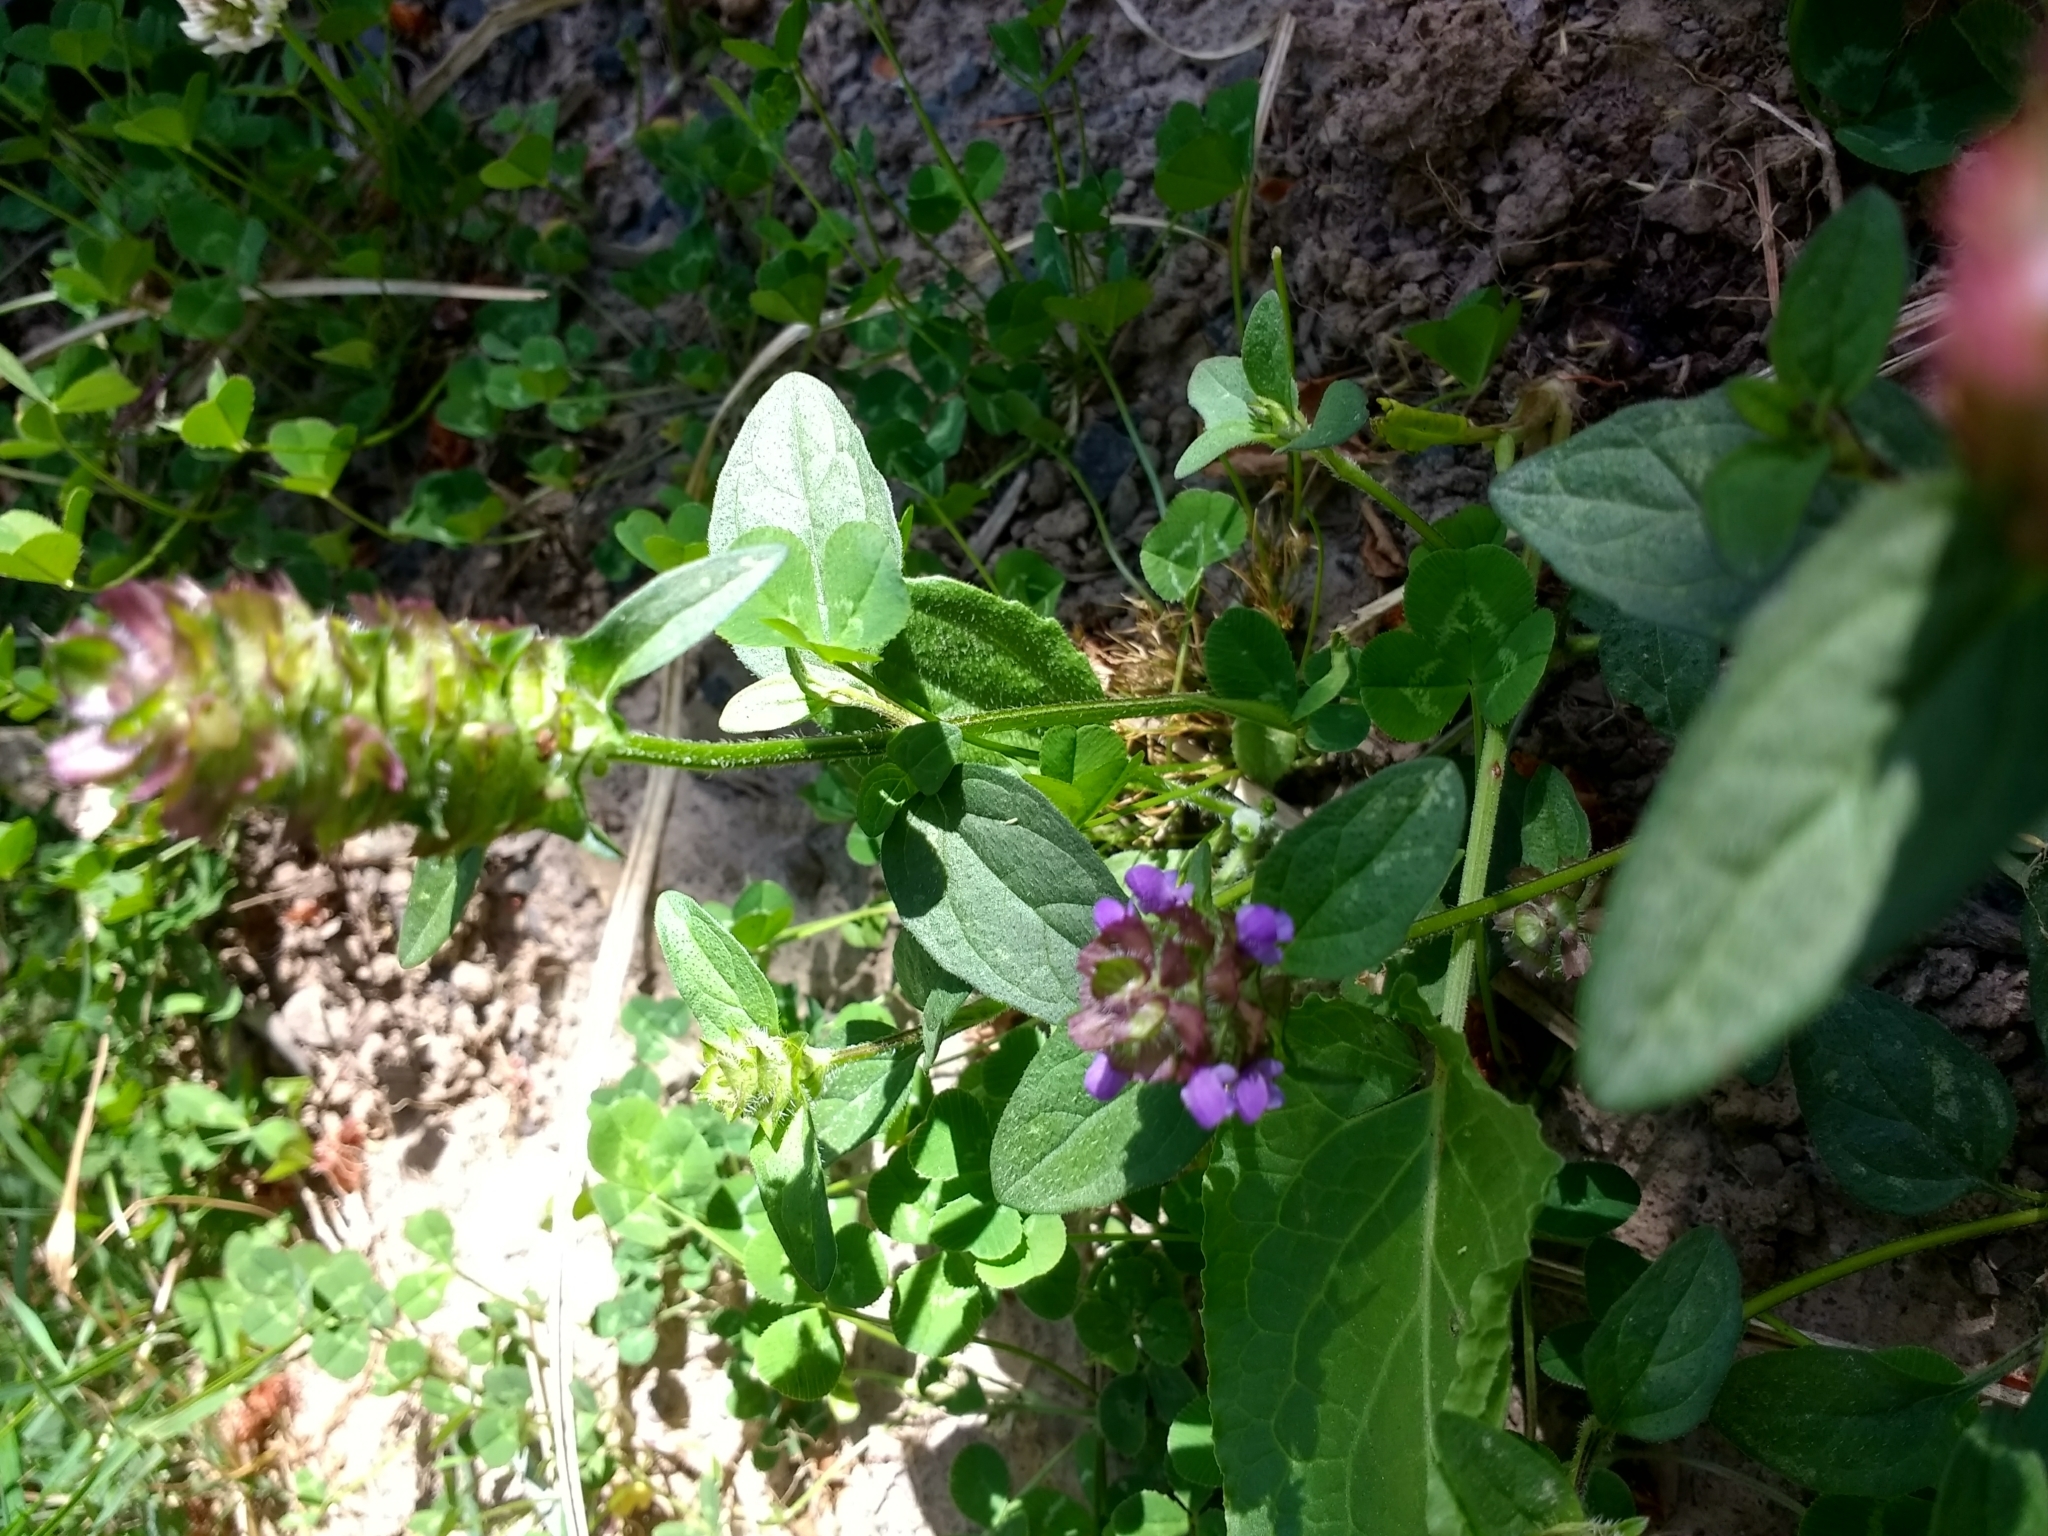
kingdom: Plantae
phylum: Tracheophyta
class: Magnoliopsida
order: Lamiales
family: Lamiaceae
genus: Prunella
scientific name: Prunella vulgaris
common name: Heal-all
